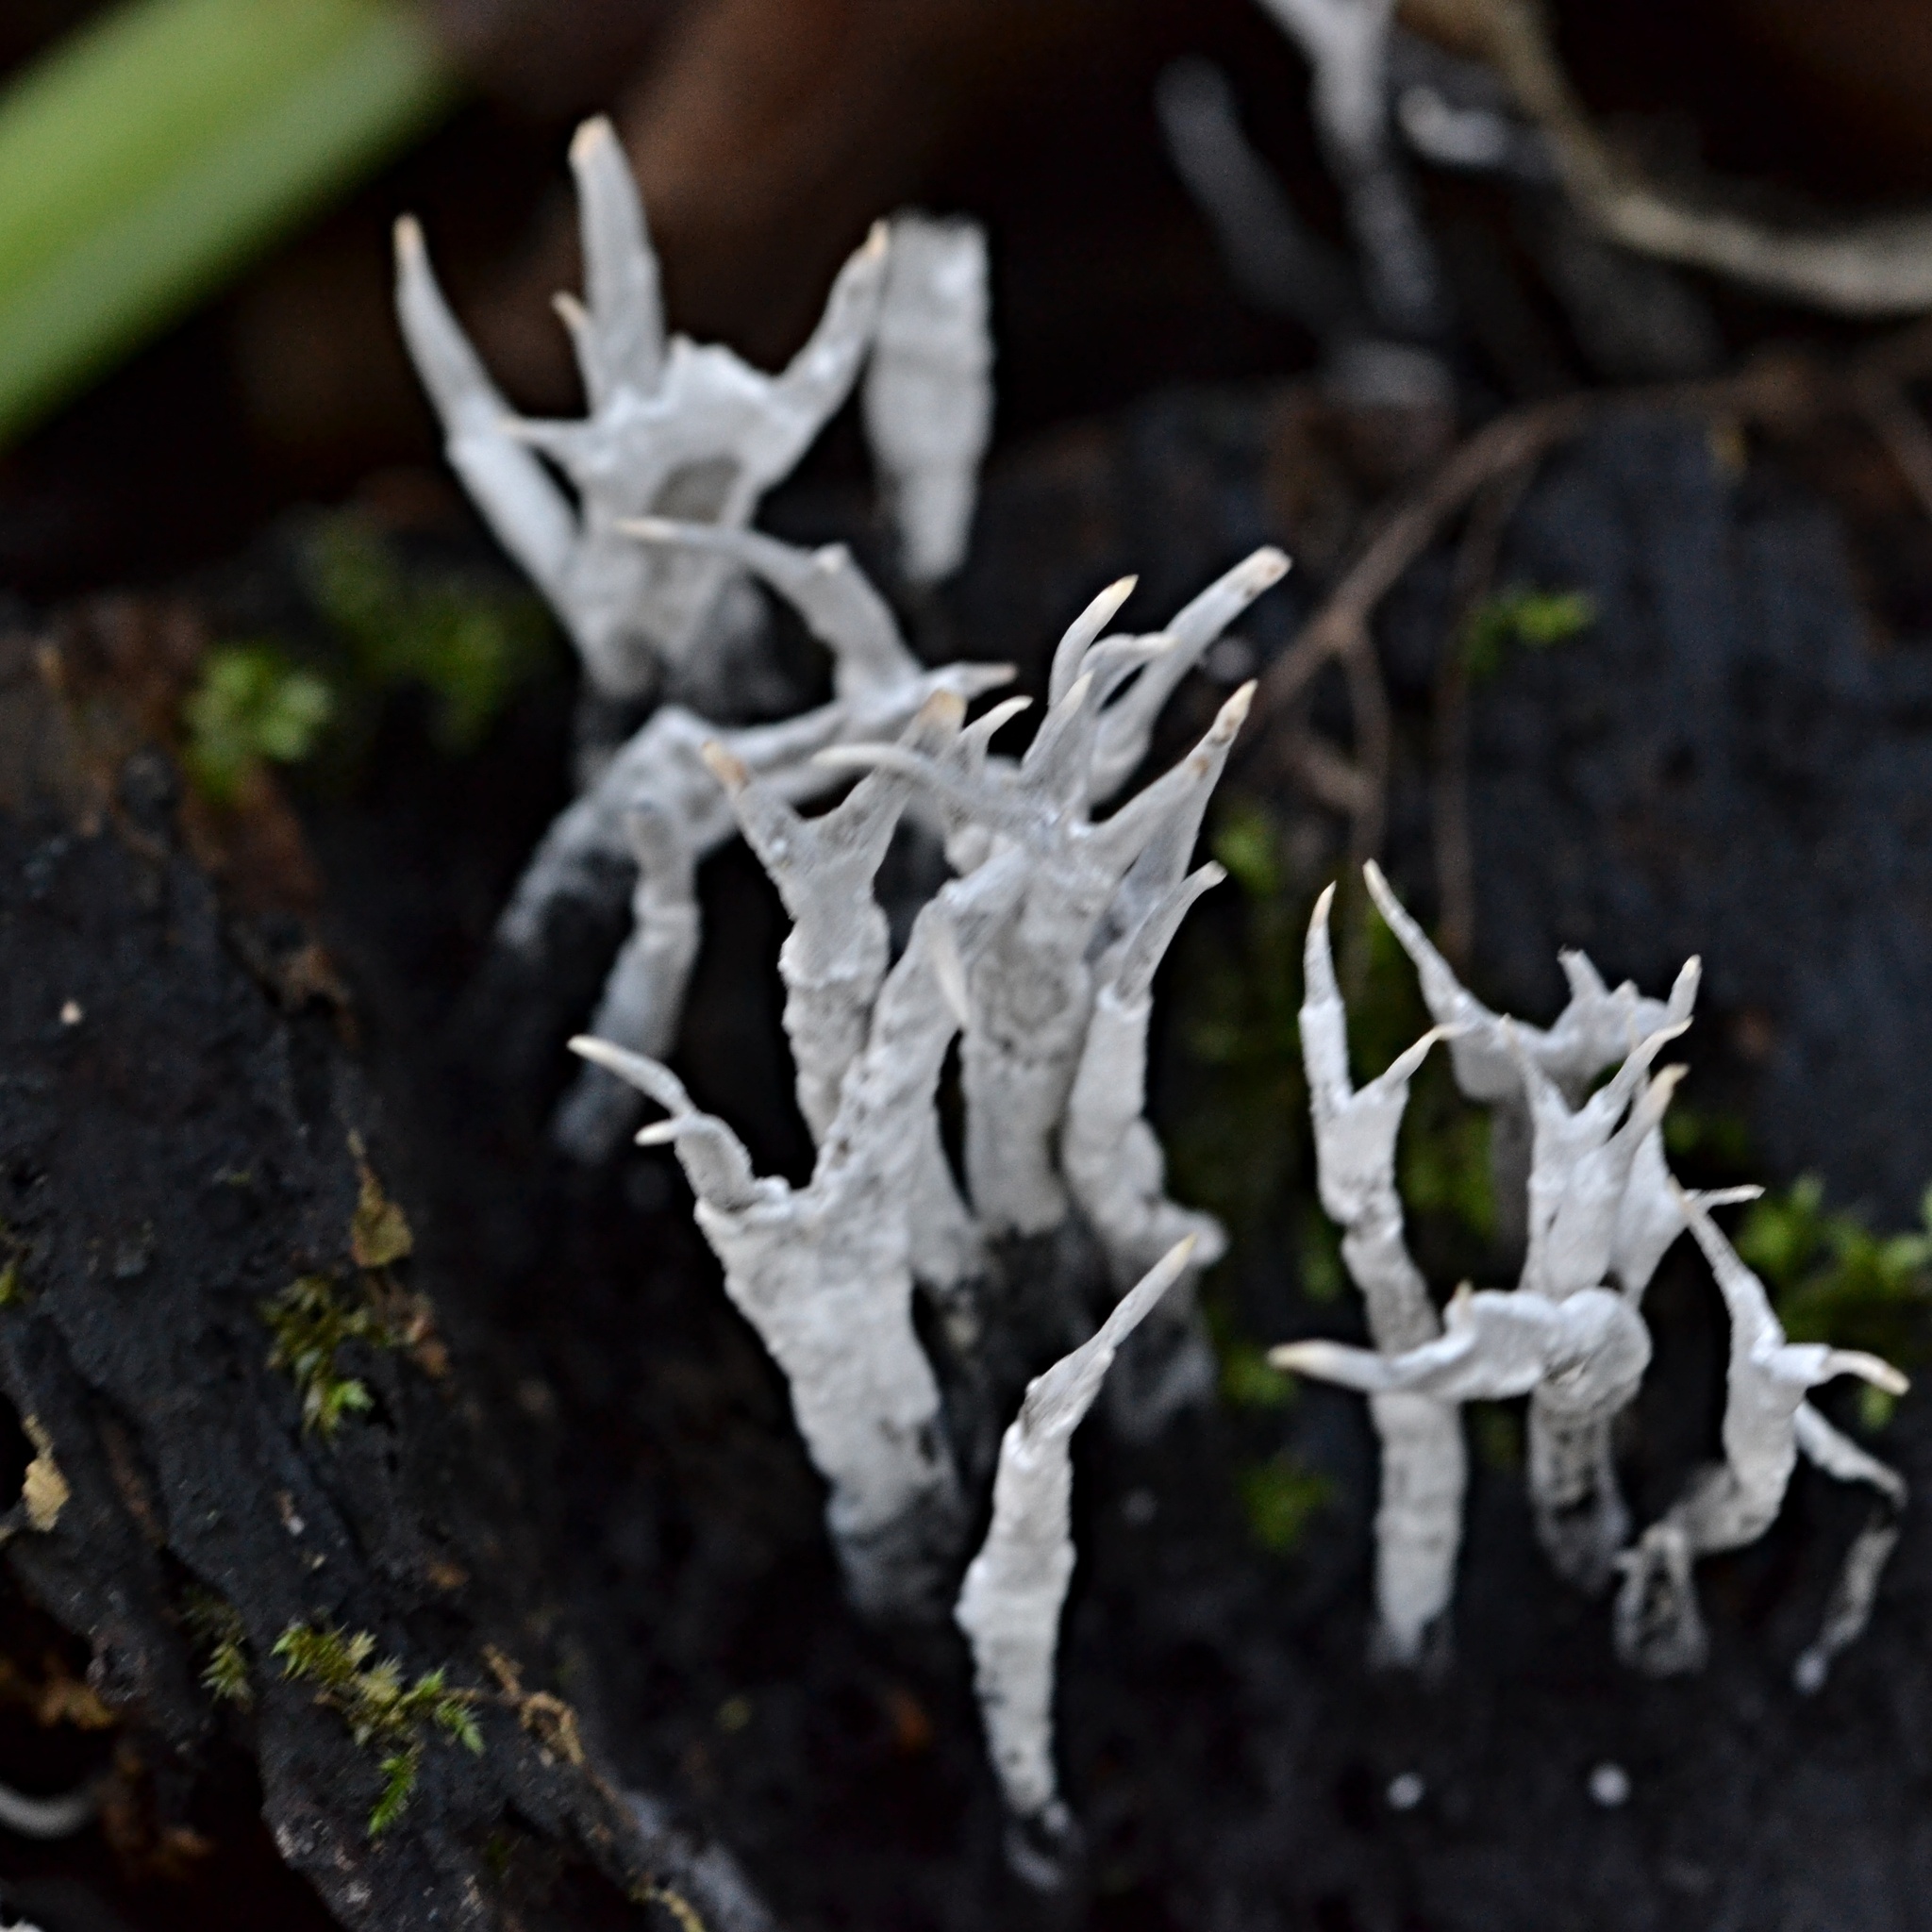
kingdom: Fungi
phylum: Ascomycota
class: Sordariomycetes
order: Xylariales
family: Xylariaceae
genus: Xylaria
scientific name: Xylaria hypoxylon
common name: Candle-snuff fungus
